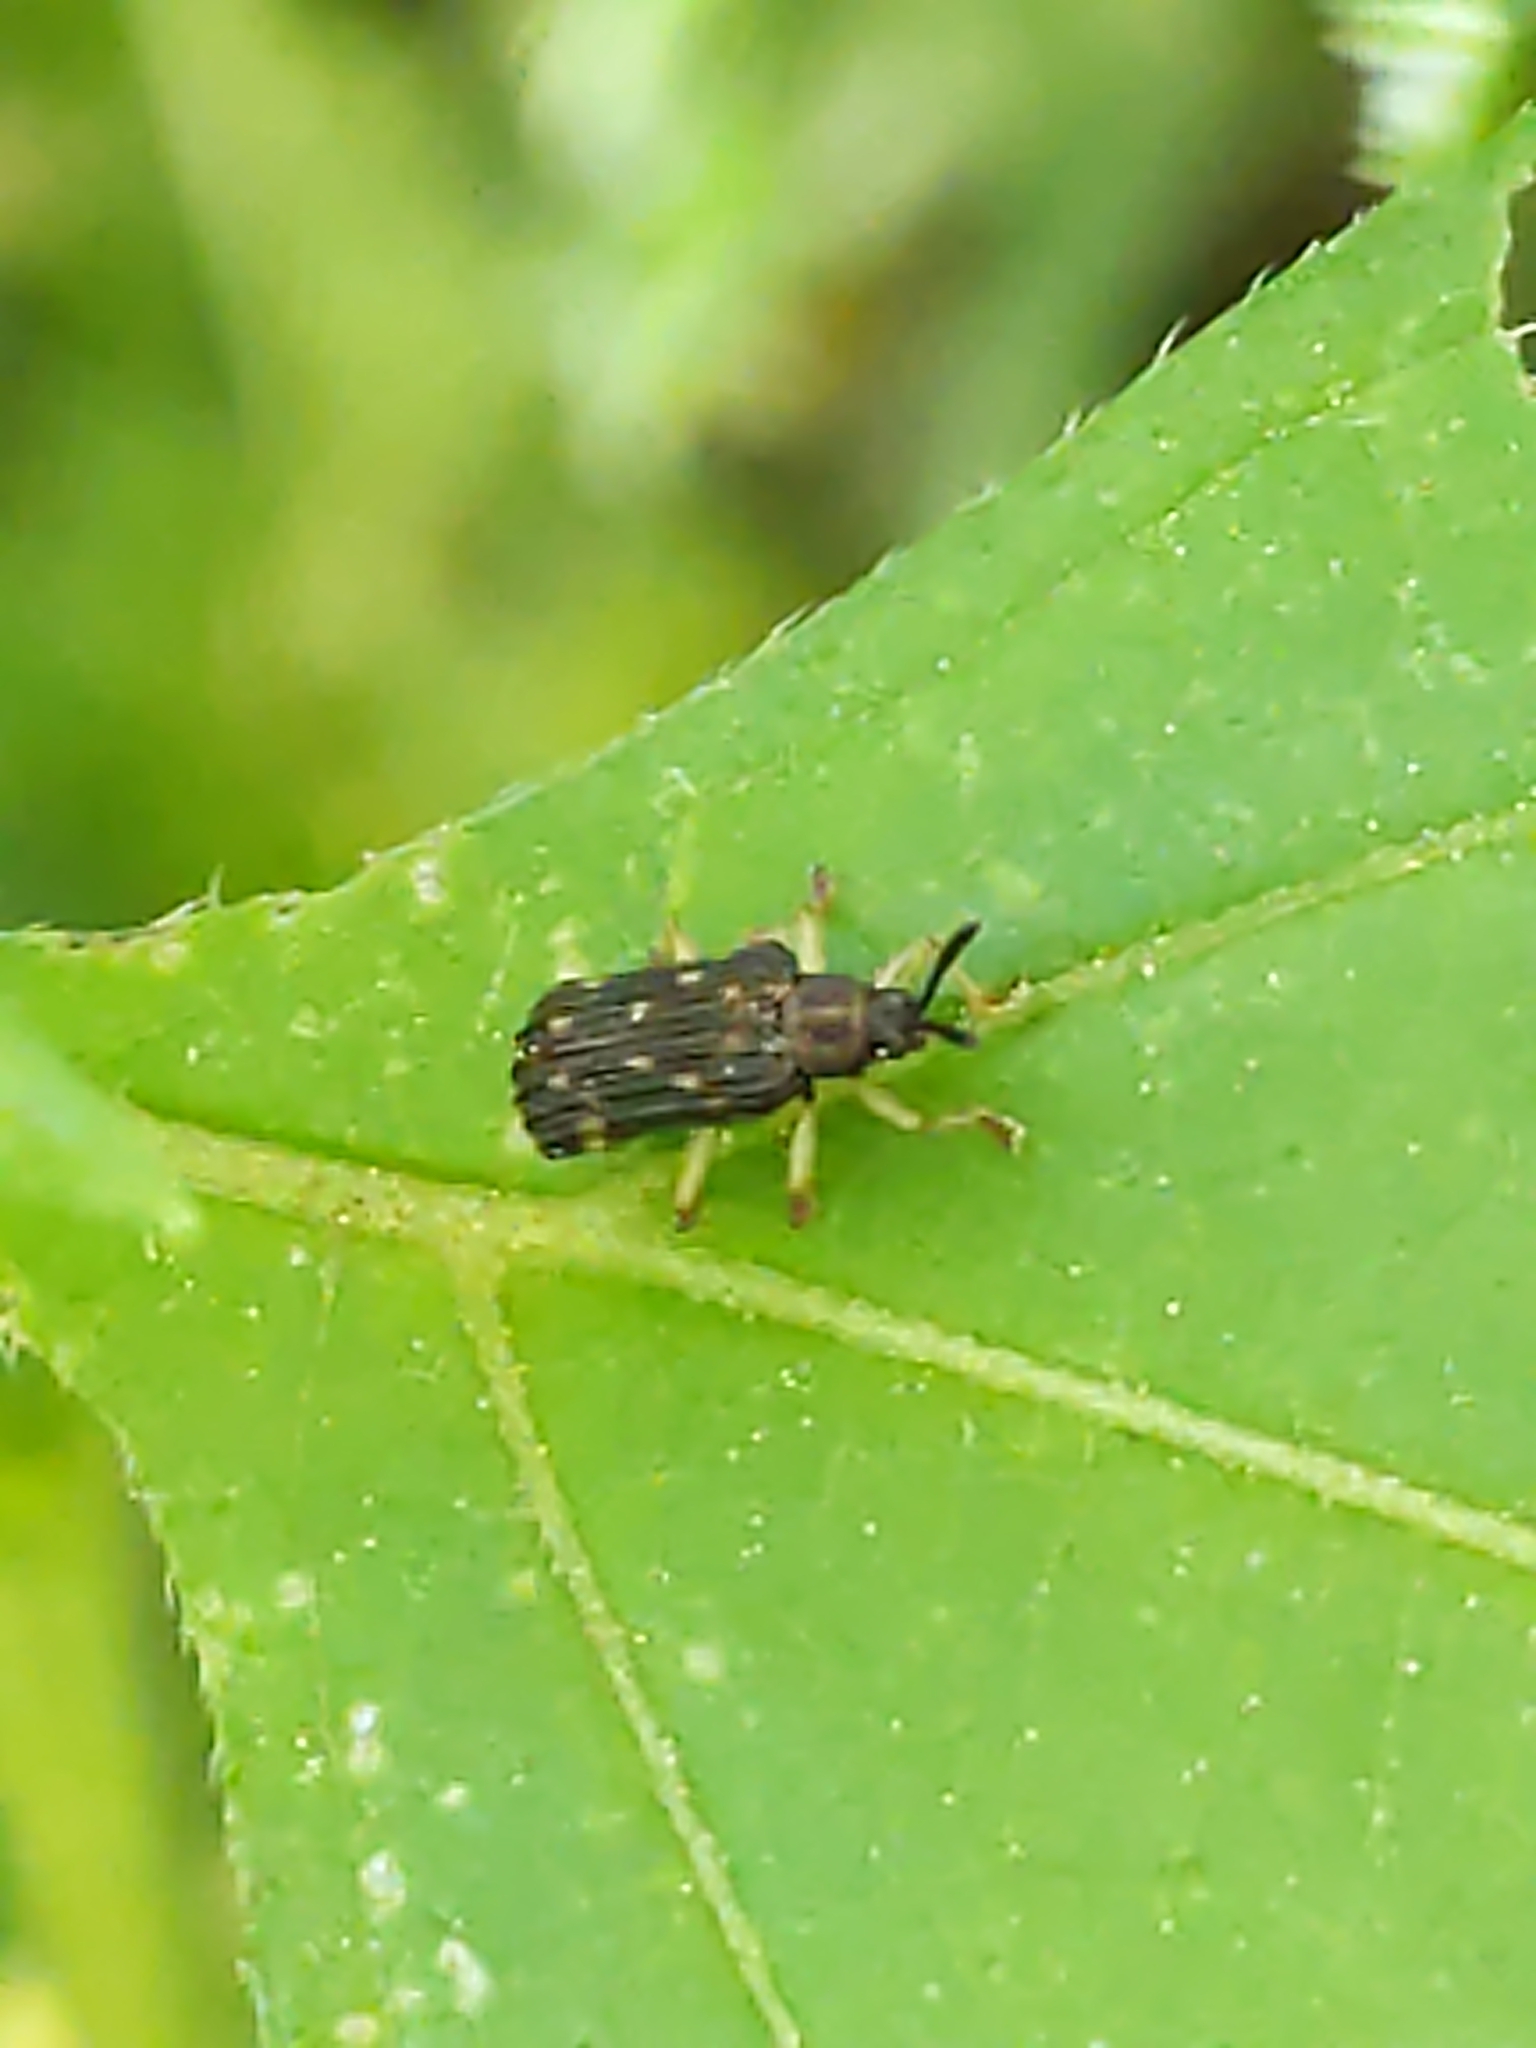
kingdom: Animalia
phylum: Arthropoda
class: Insecta
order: Coleoptera
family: Chrysomelidae
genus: Sumitrosis
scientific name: Sumitrosis inaequalis
